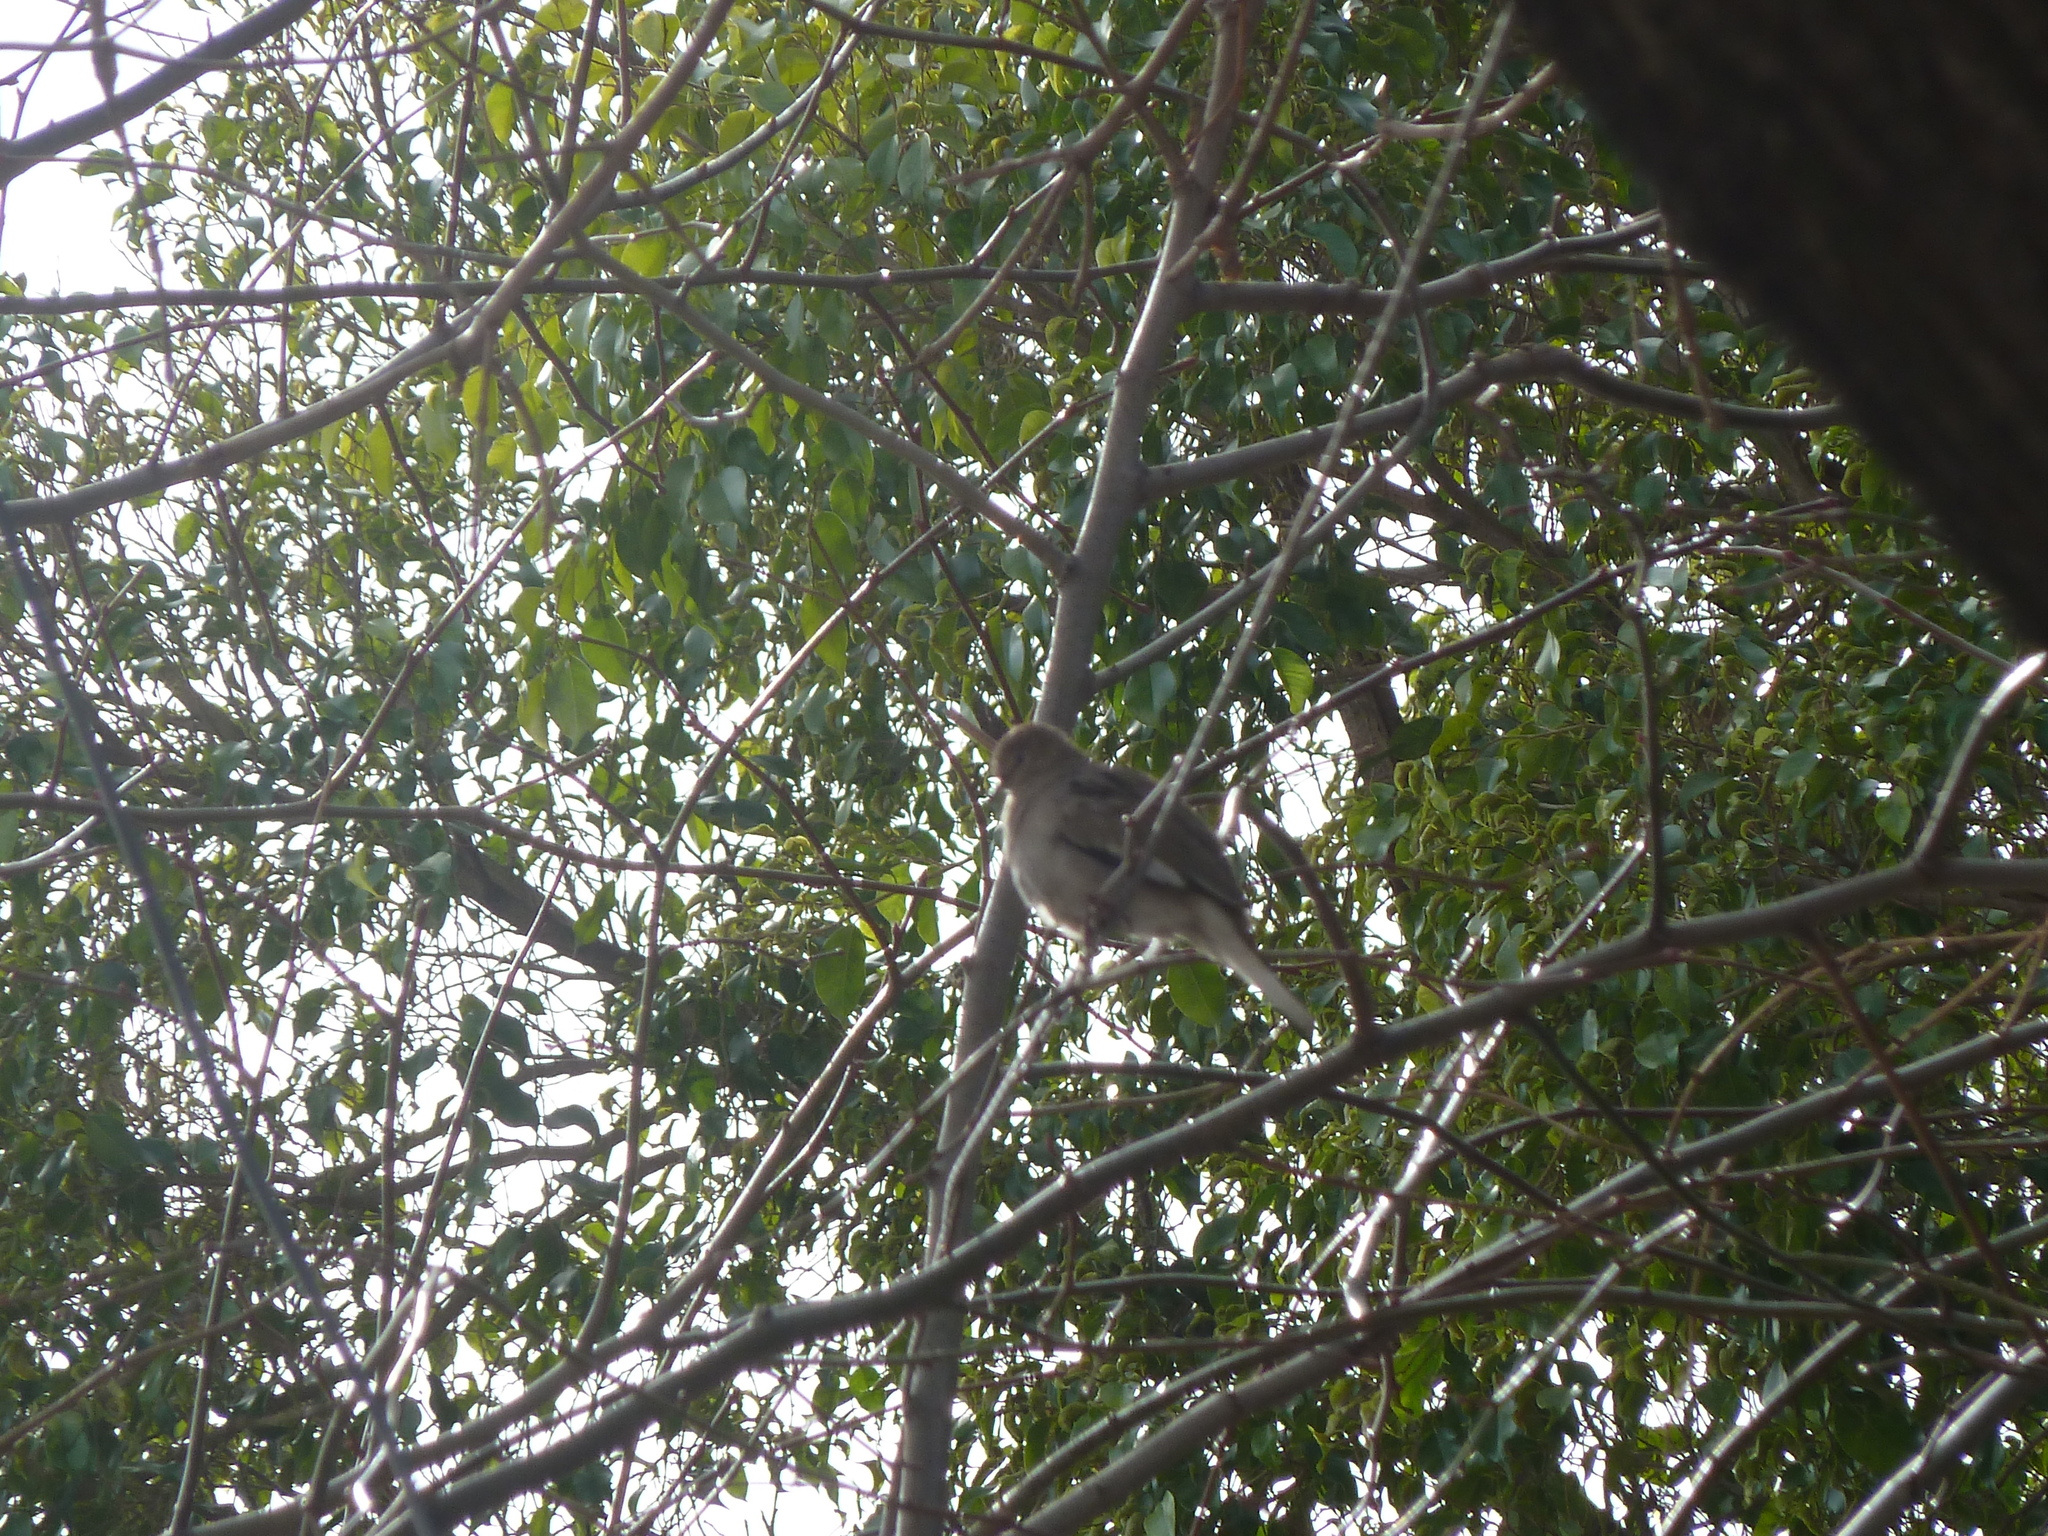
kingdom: Animalia
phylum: Chordata
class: Aves
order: Columbiformes
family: Columbidae
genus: Columbina
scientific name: Columbina picui
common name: Picui ground dove
